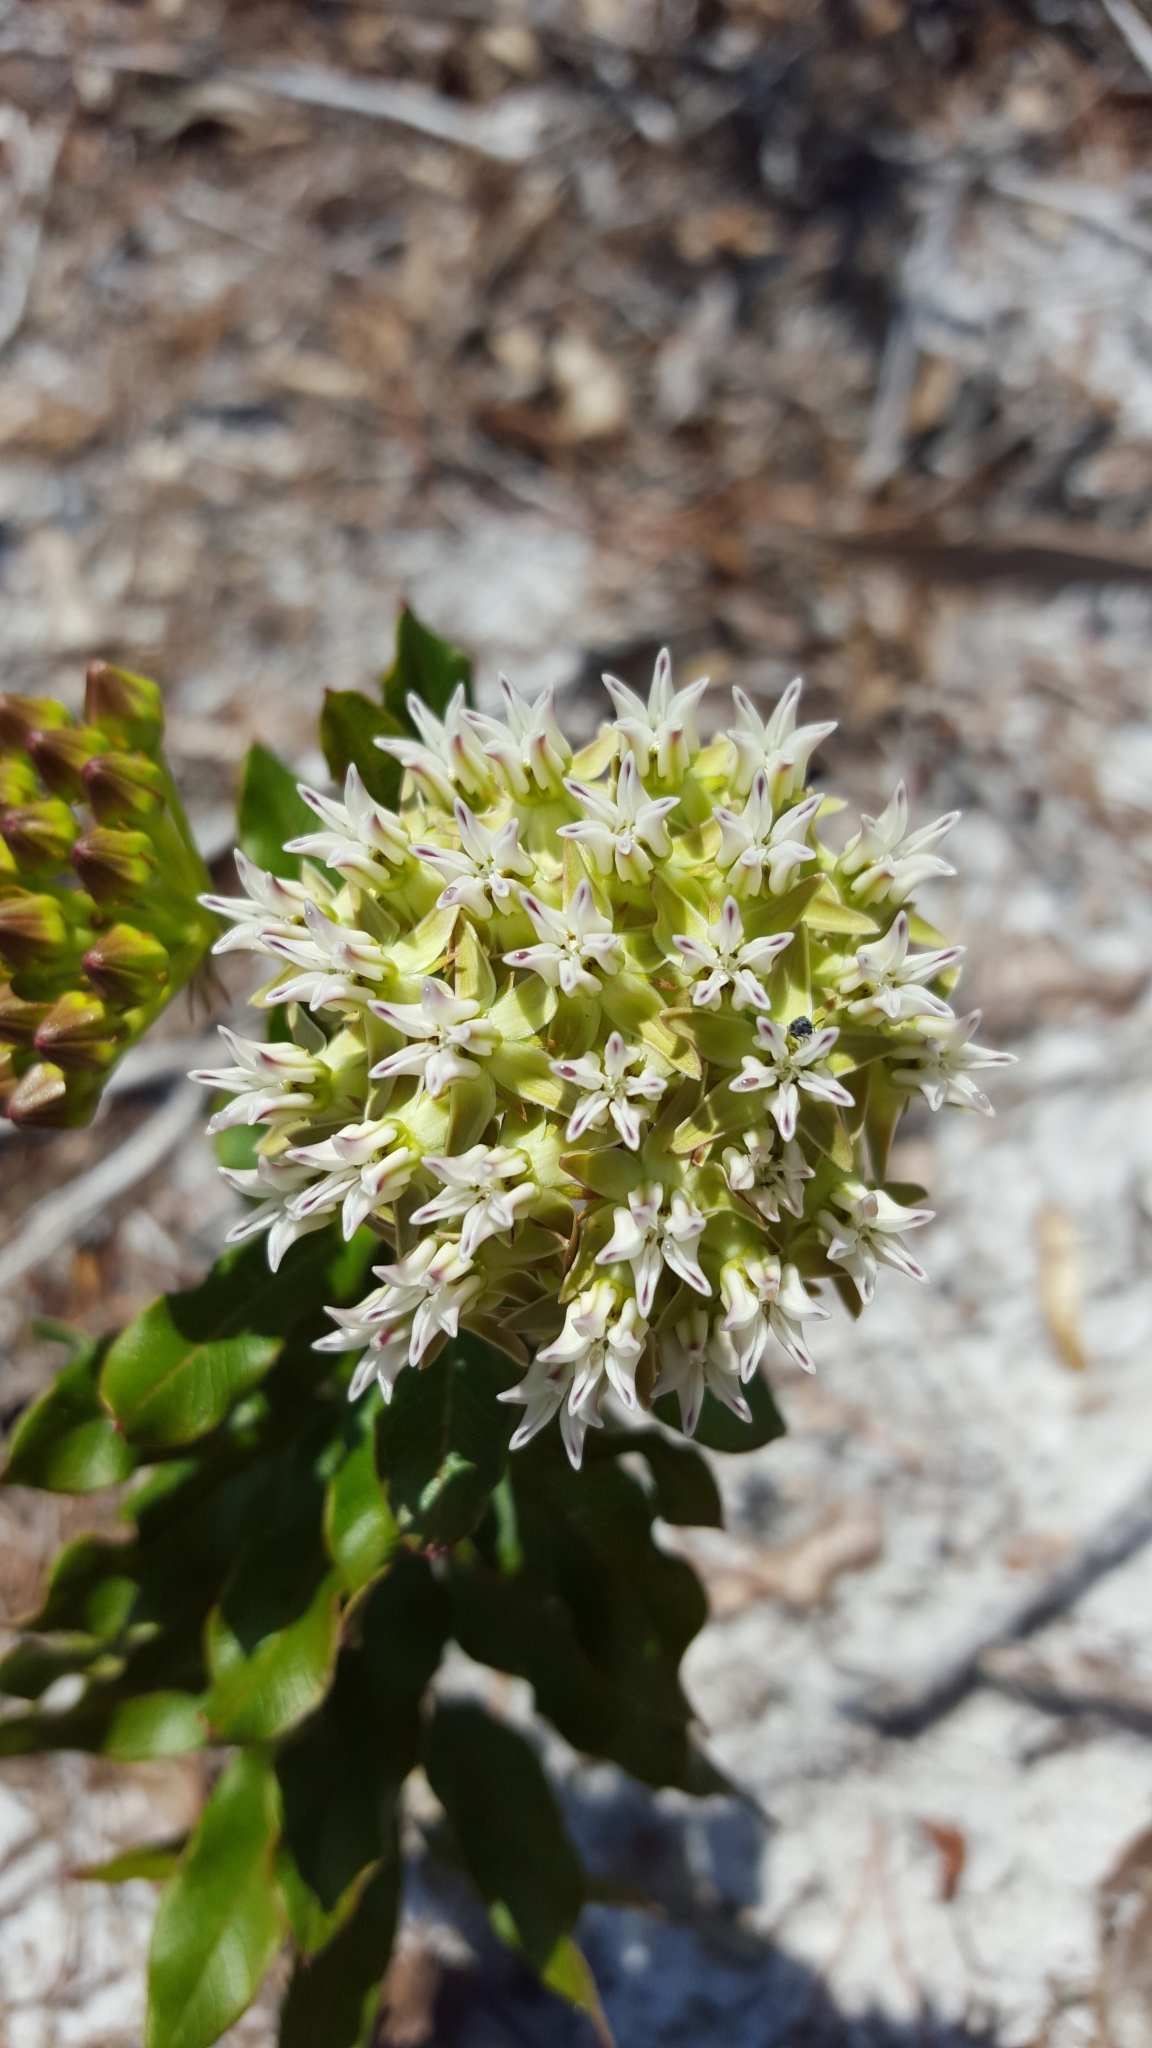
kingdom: Plantae
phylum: Tracheophyta
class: Magnoliopsida
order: Gentianales
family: Apocynaceae
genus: Asclepias
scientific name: Asclepias curtissii
